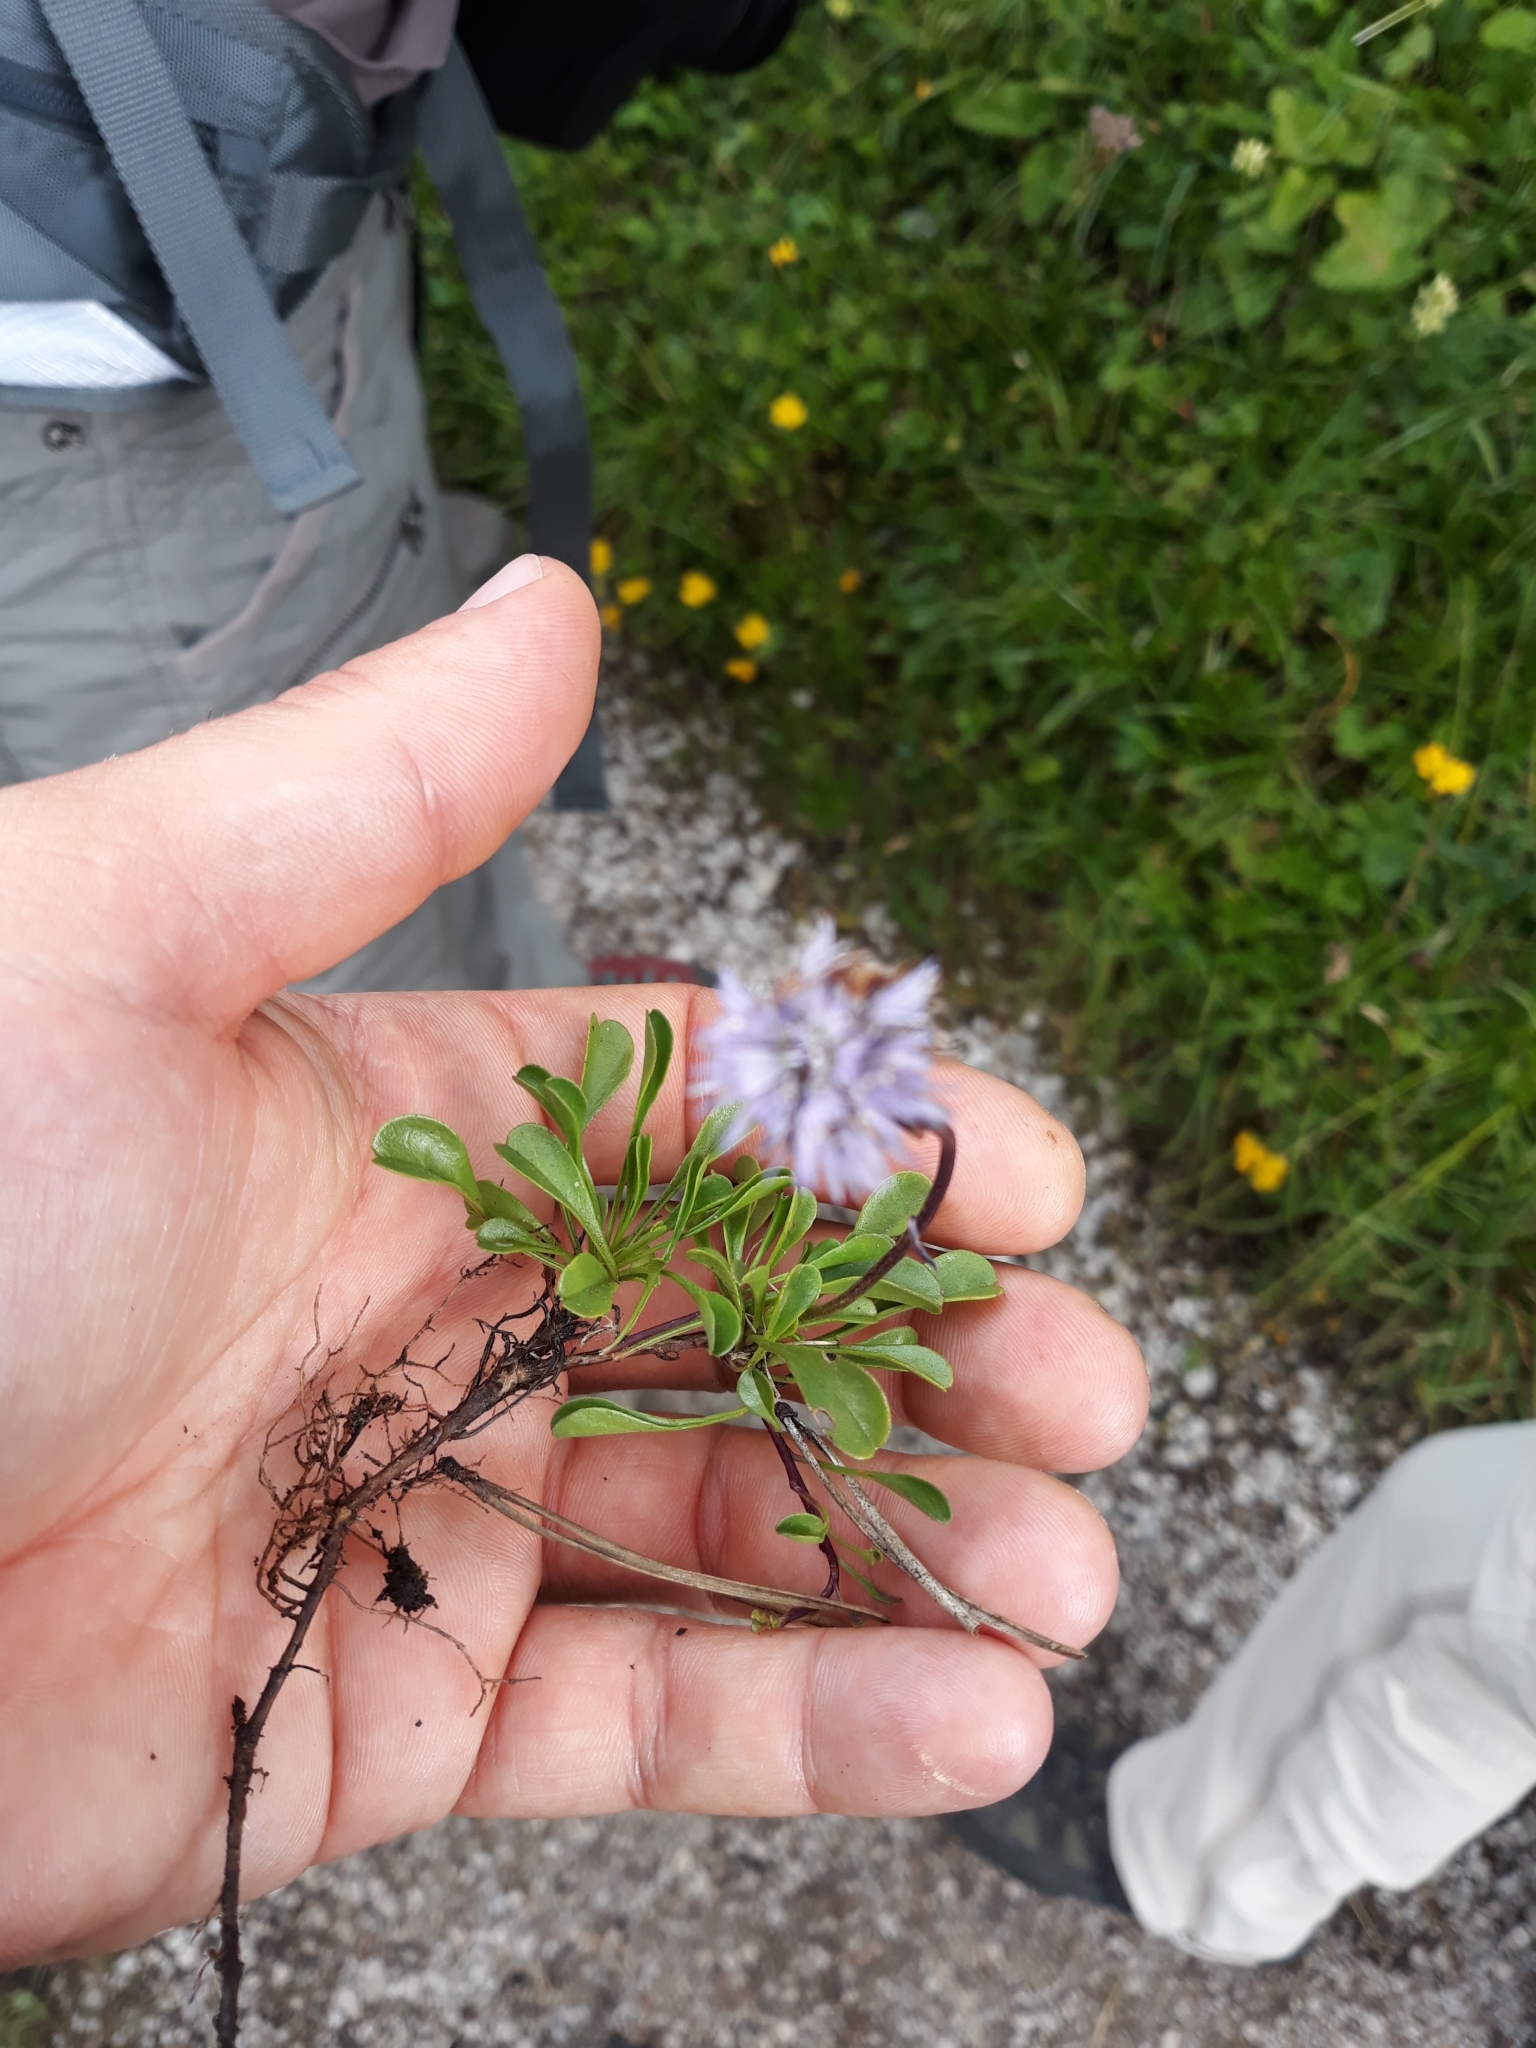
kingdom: Plantae
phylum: Tracheophyta
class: Magnoliopsida
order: Lamiales
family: Plantaginaceae
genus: Globularia
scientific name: Globularia cordifolia
